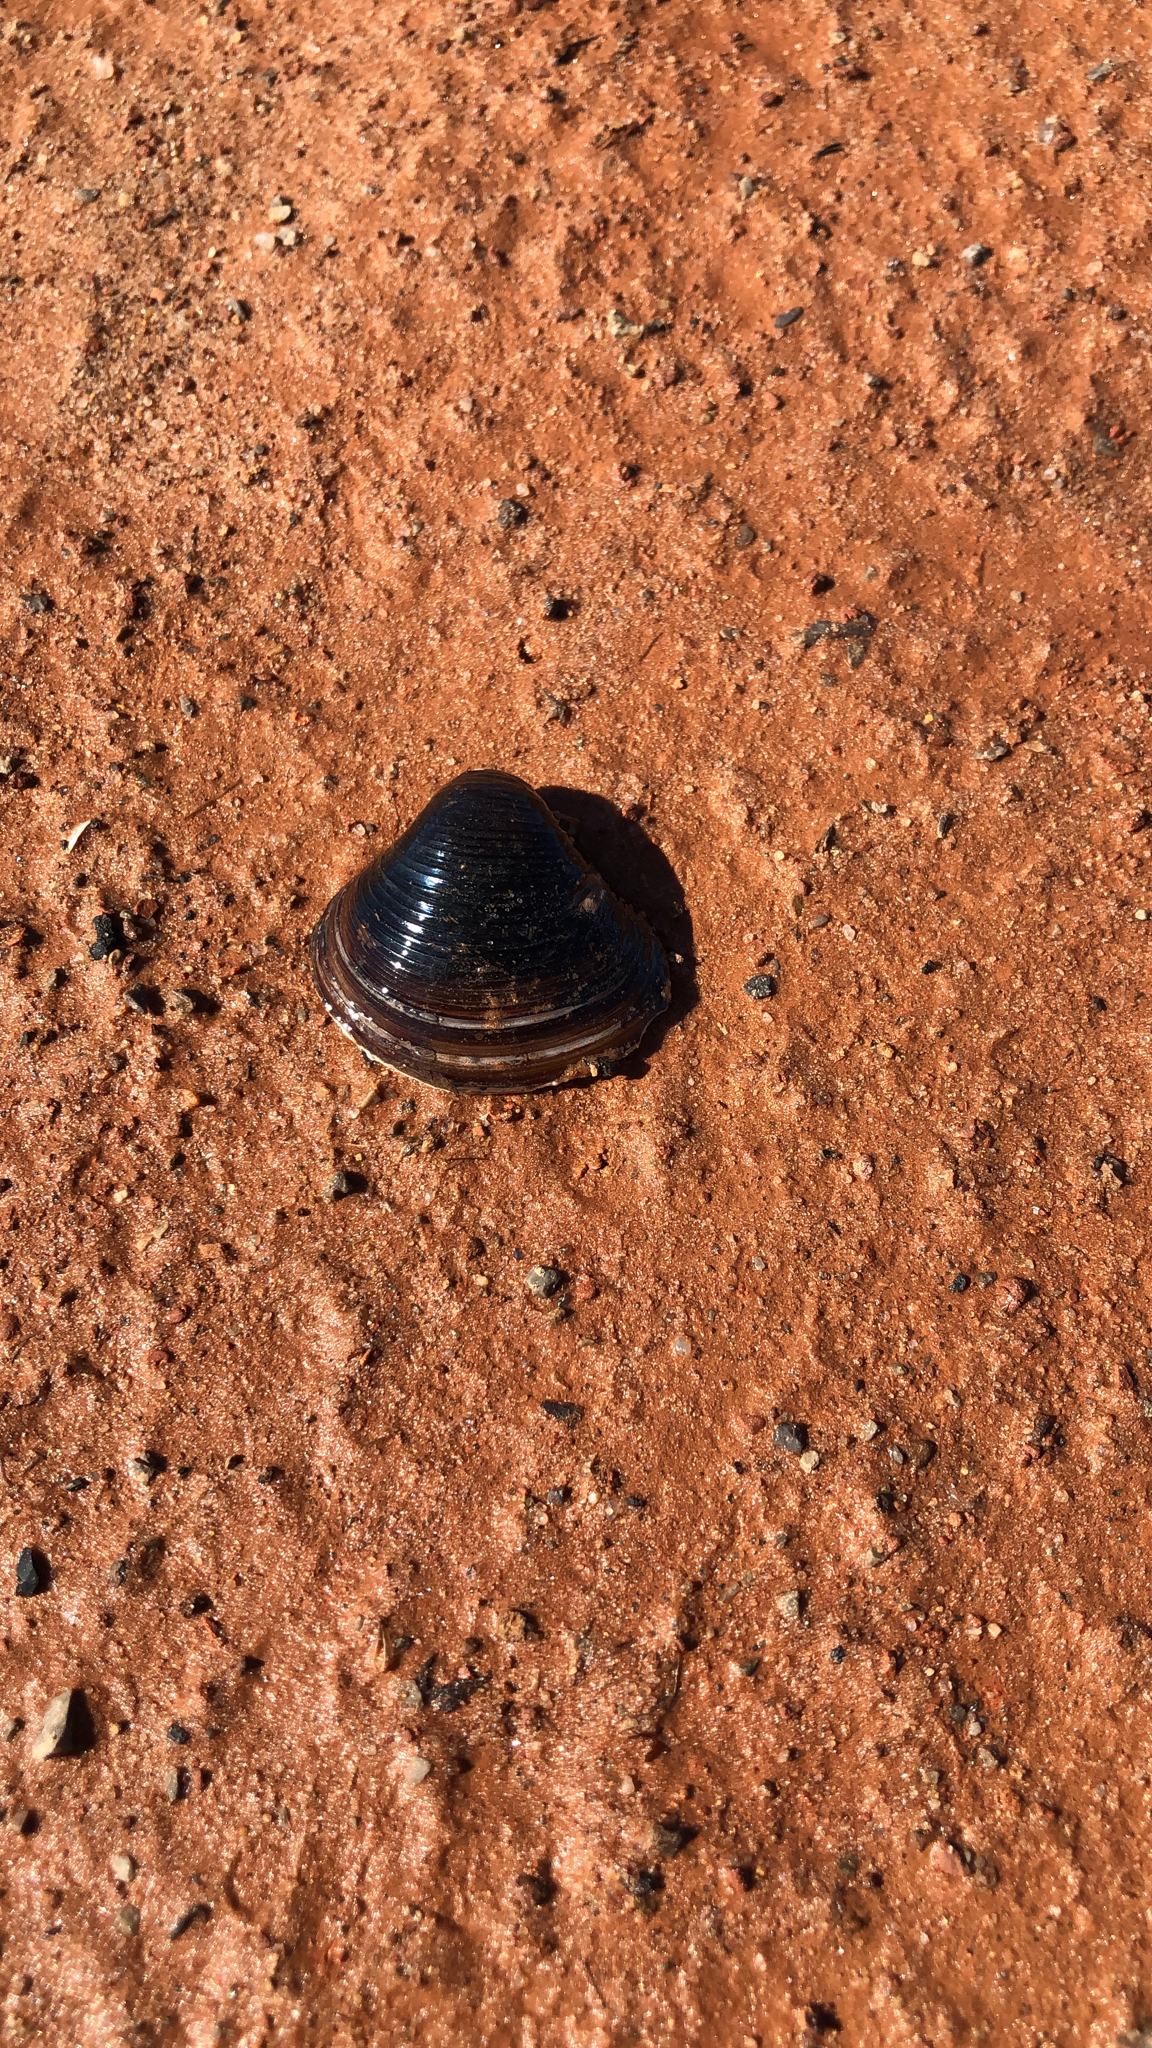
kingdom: Animalia
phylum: Mollusca
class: Bivalvia
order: Venerida
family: Cyrenidae
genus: Corbicula
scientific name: Corbicula fluminea
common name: Asian clam
